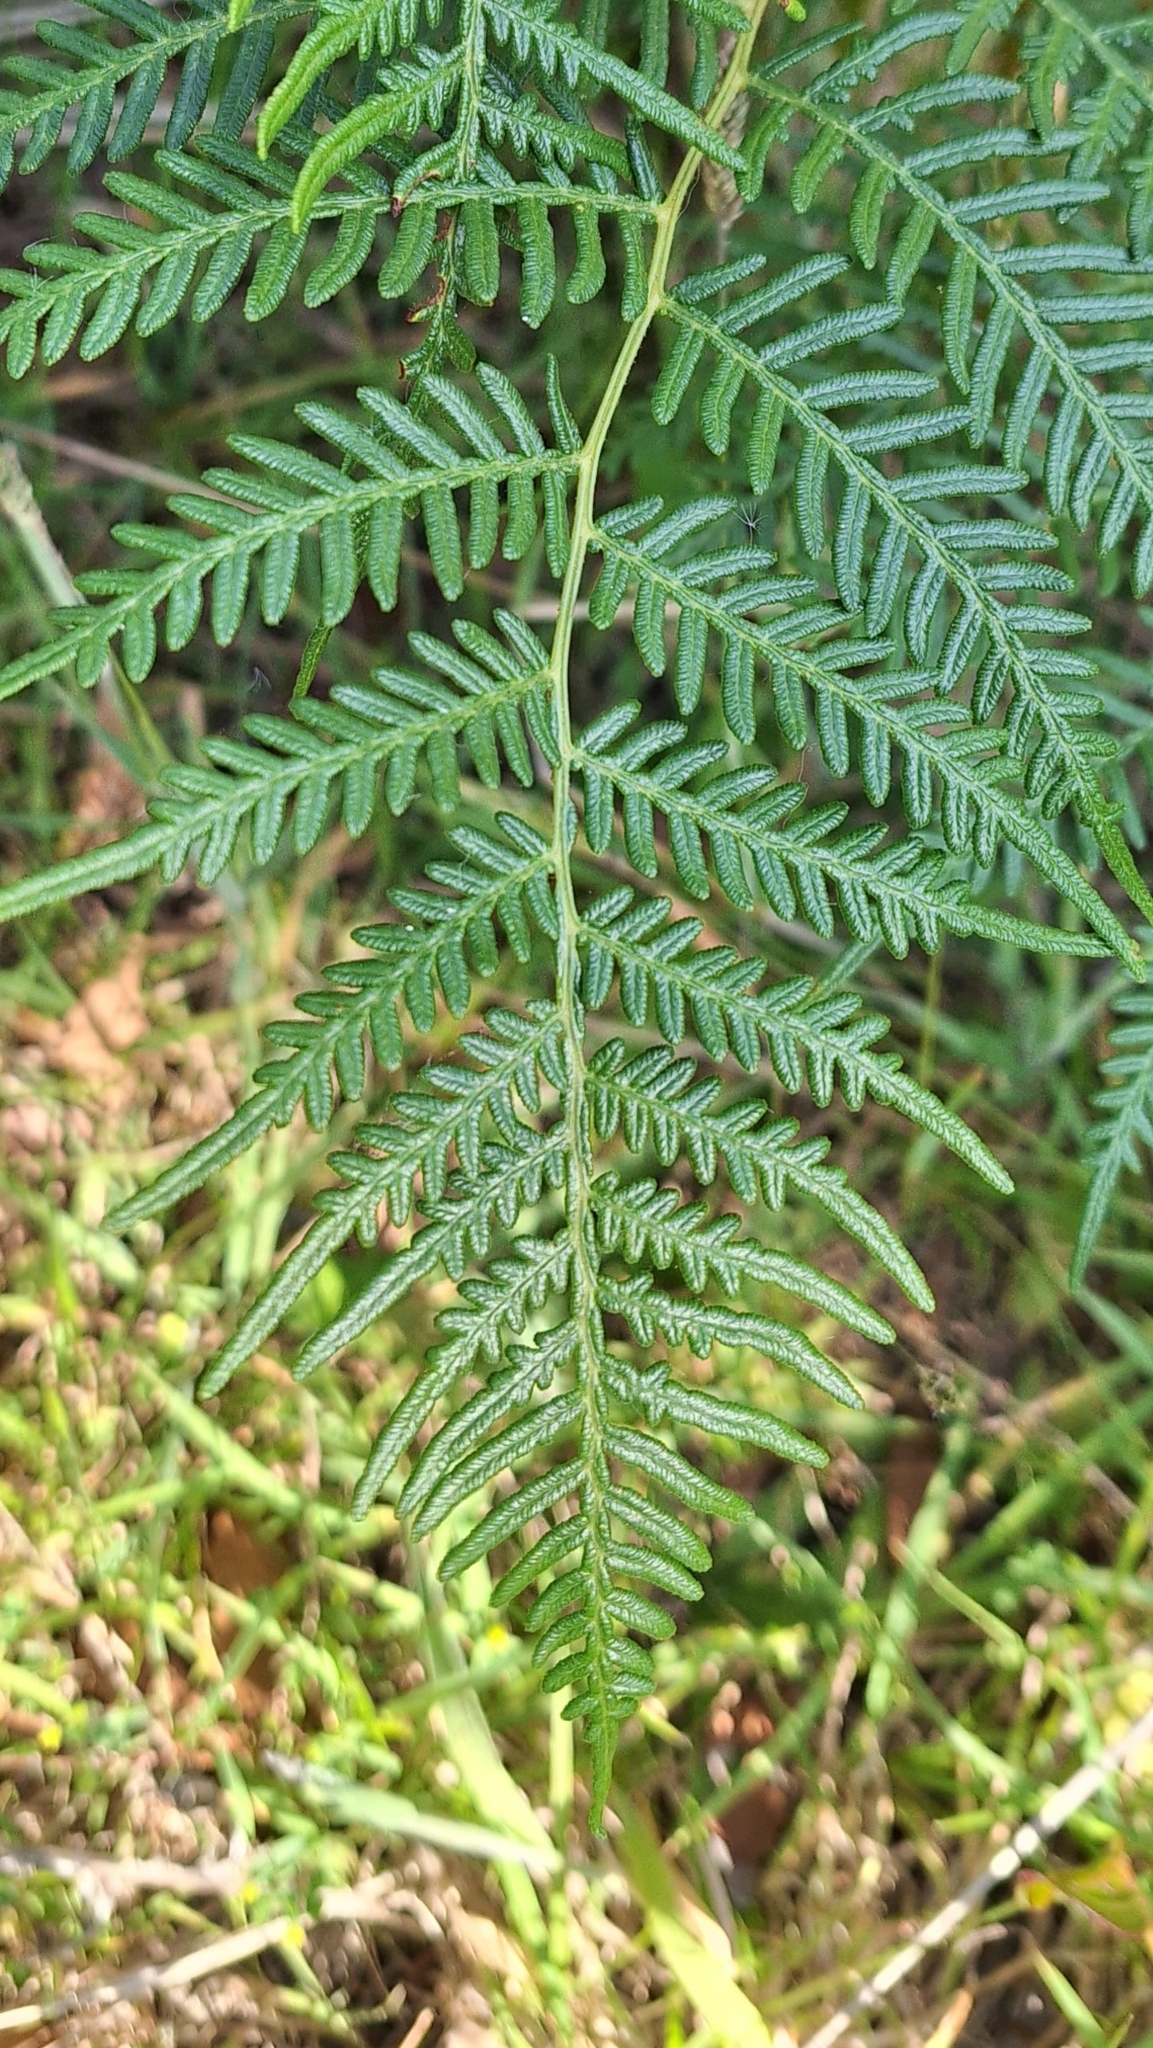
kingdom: Plantae
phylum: Tracheophyta
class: Polypodiopsida
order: Polypodiales
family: Dennstaedtiaceae
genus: Pteridium
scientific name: Pteridium esculentum
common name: Bracken fern
